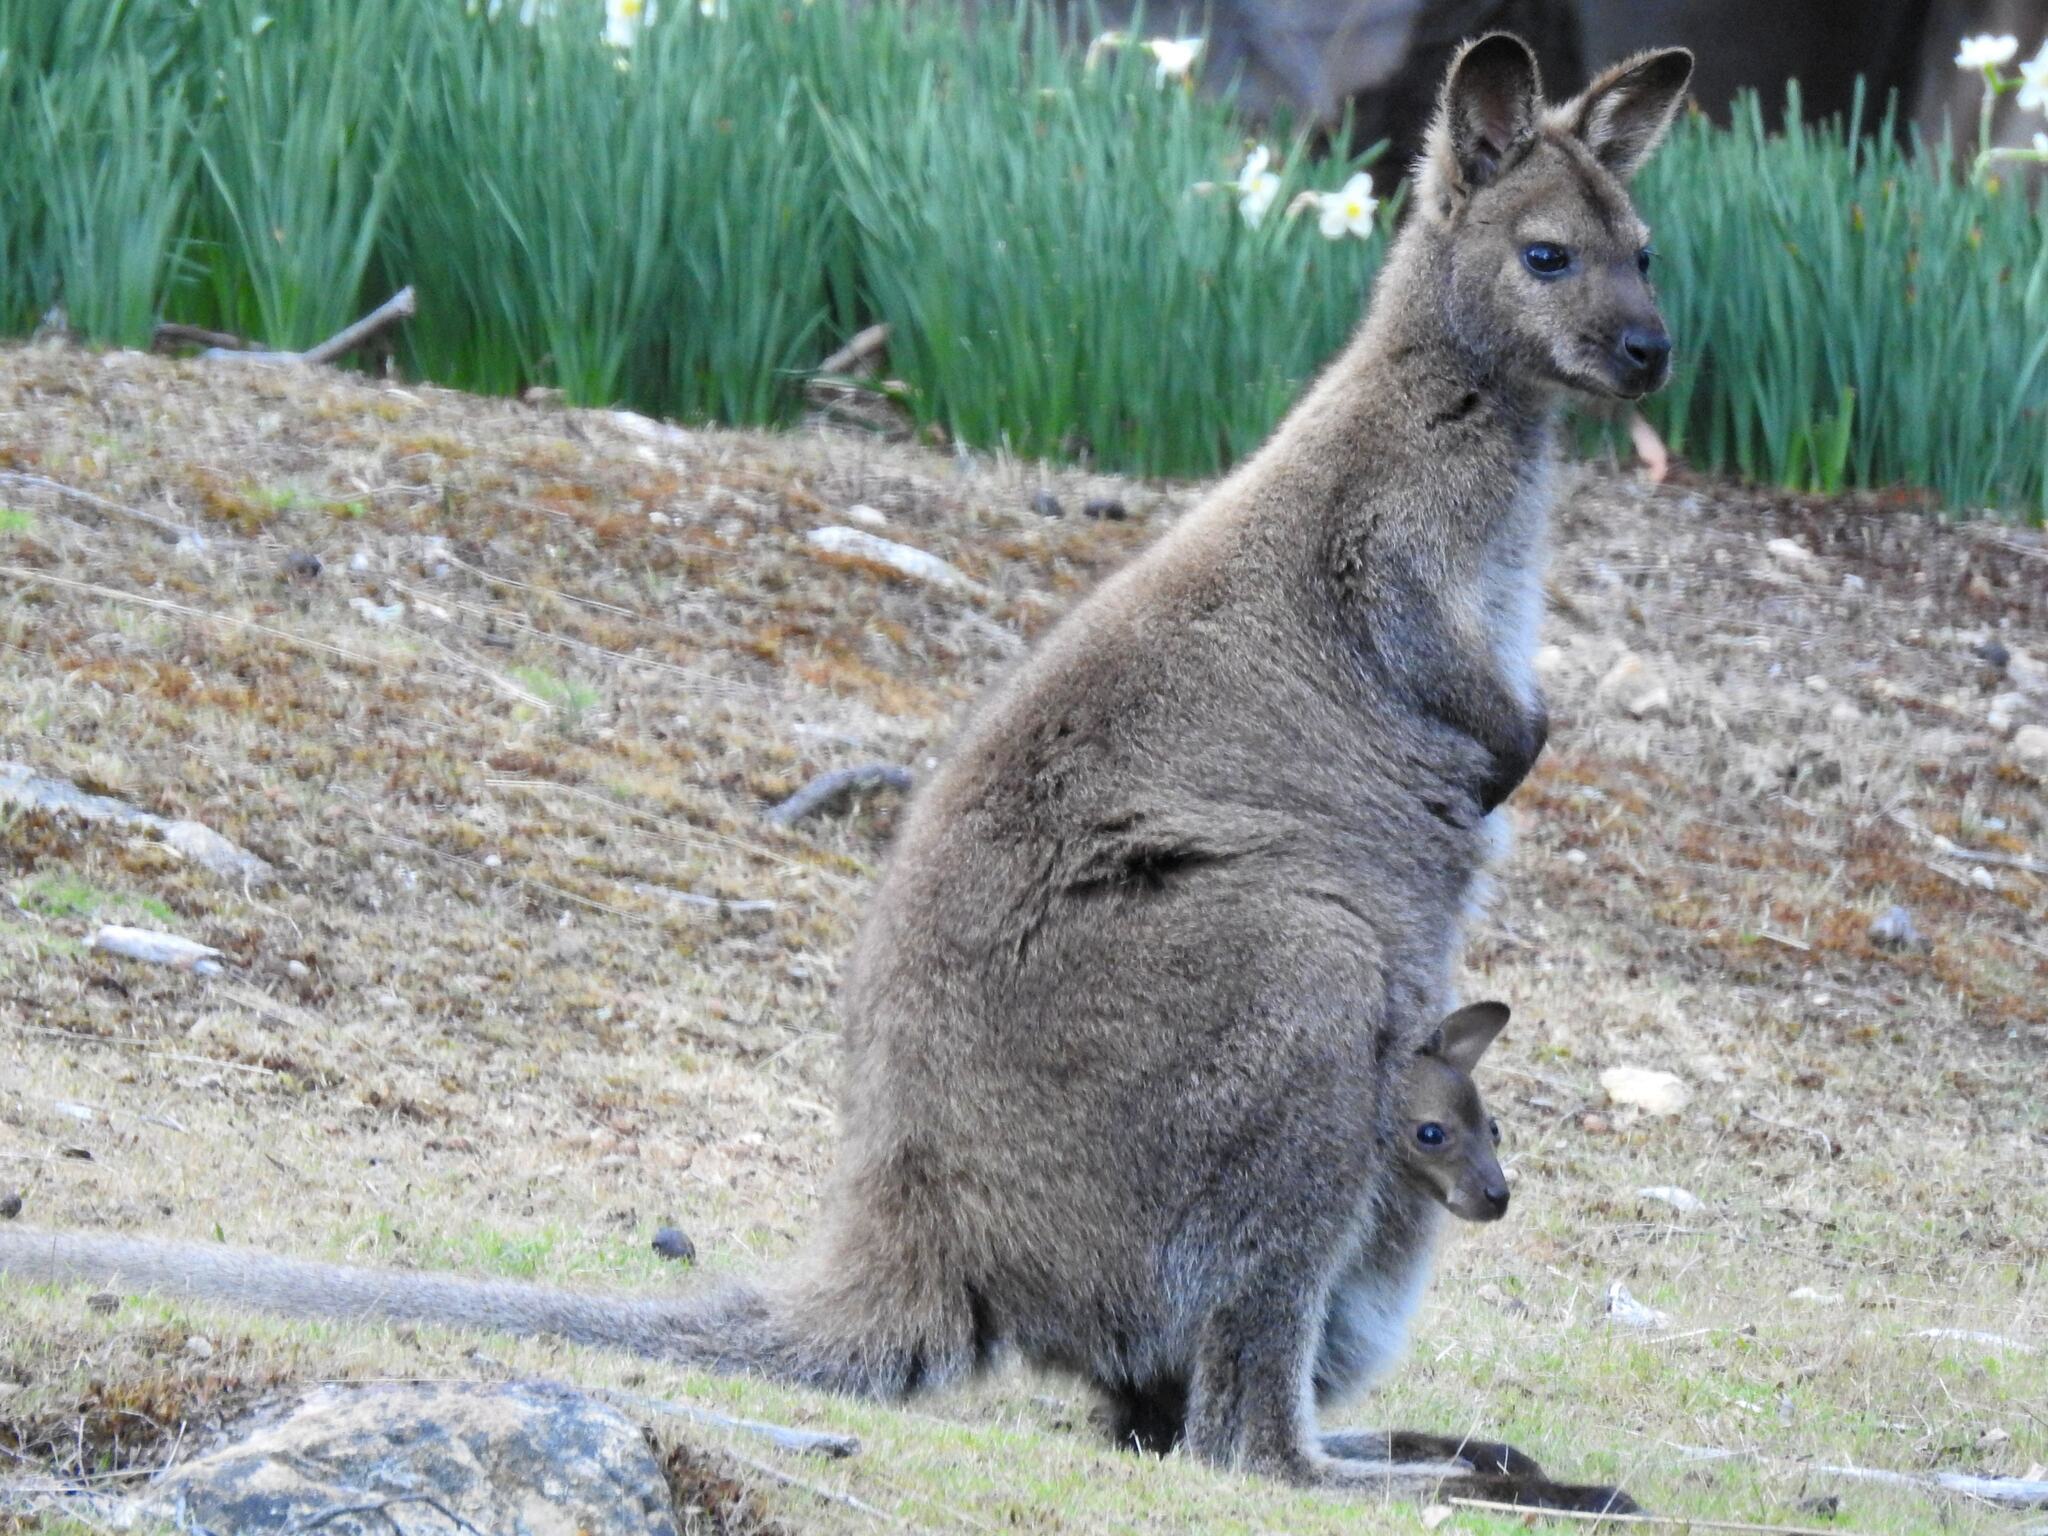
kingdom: Animalia
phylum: Chordata
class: Mammalia
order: Diprotodontia
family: Macropodidae
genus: Notamacropus
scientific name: Notamacropus rufogriseus
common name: Red-necked wallaby
